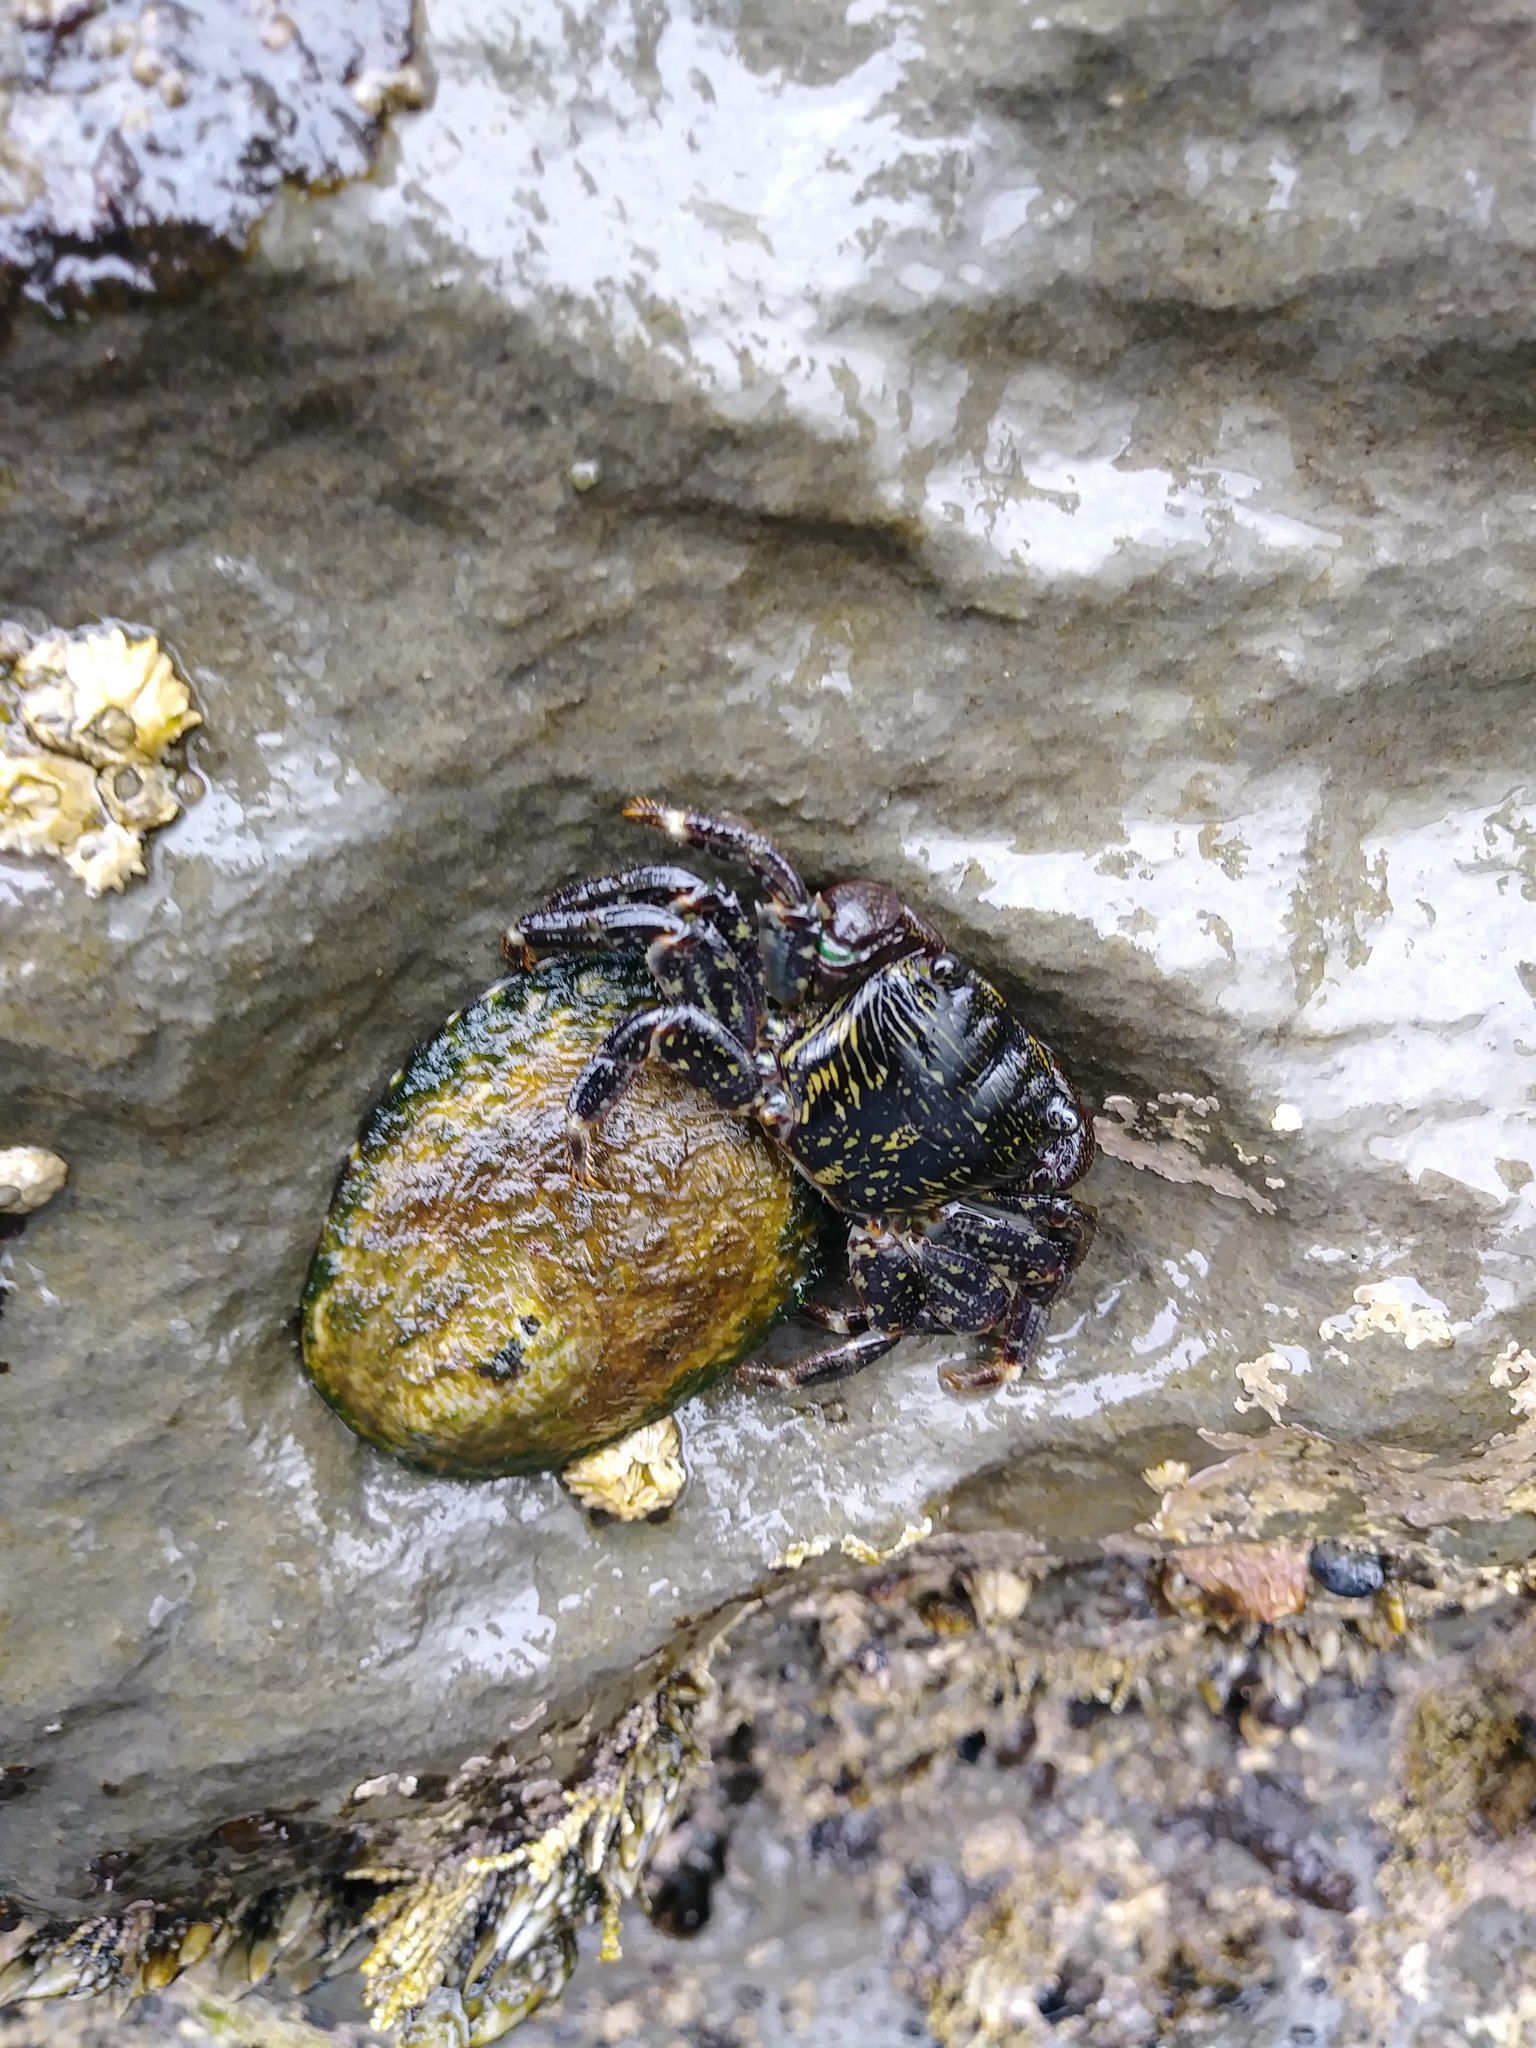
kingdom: Animalia
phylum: Arthropoda
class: Malacostraca
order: Decapoda
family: Grapsidae
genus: Pachygrapsus
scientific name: Pachygrapsus crassipes
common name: Striped shore crab
